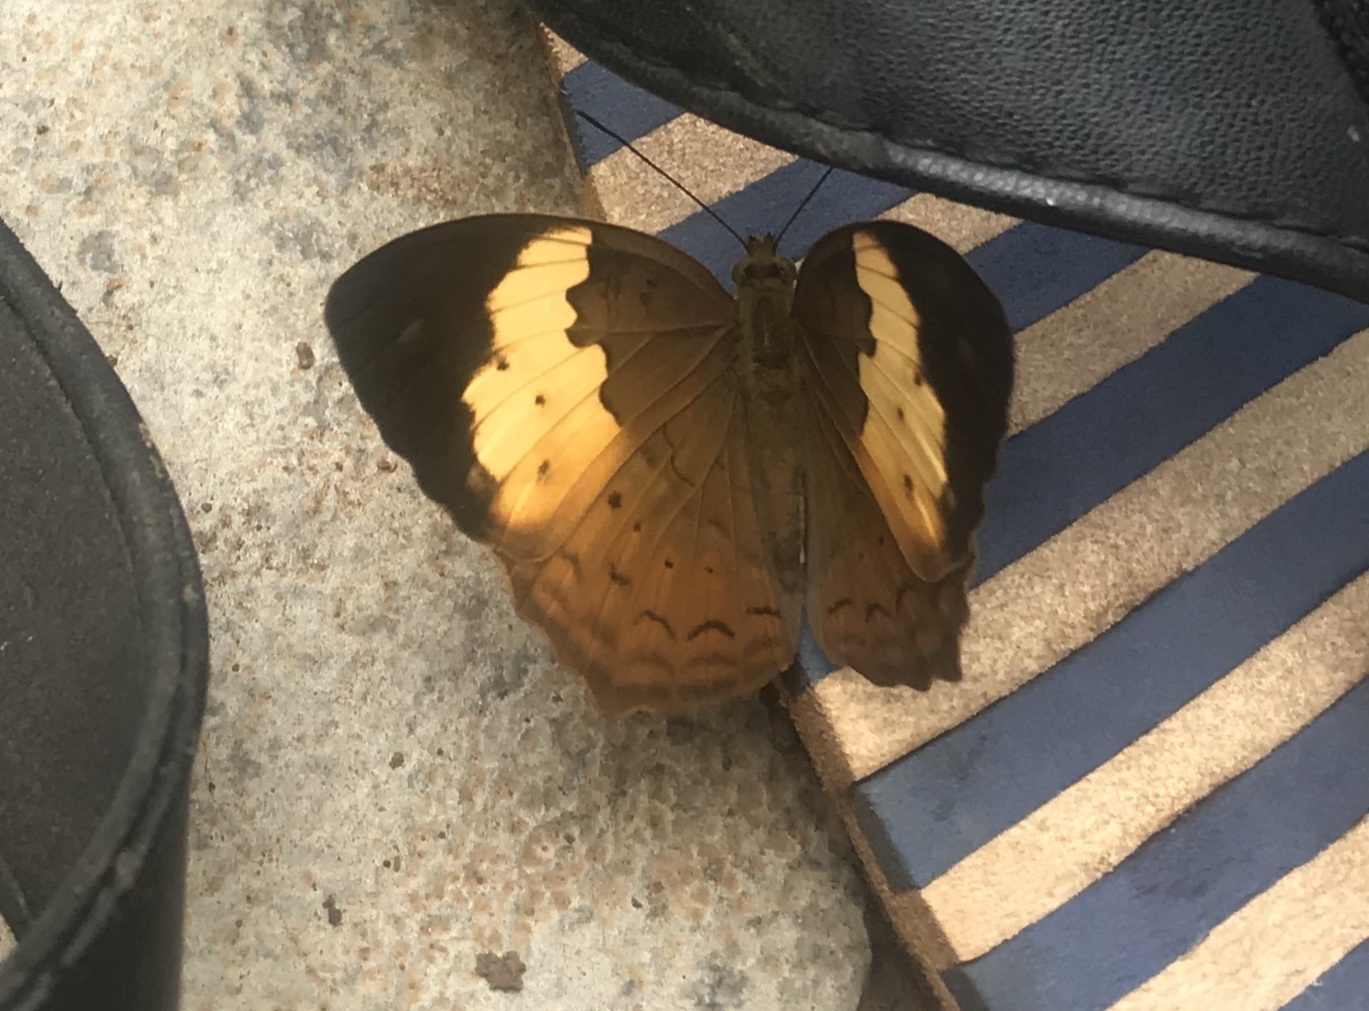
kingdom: Animalia
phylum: Arthropoda
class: Insecta
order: Lepidoptera
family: Nymphalidae
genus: Cupha
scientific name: Cupha erymanthis
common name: Rustic
